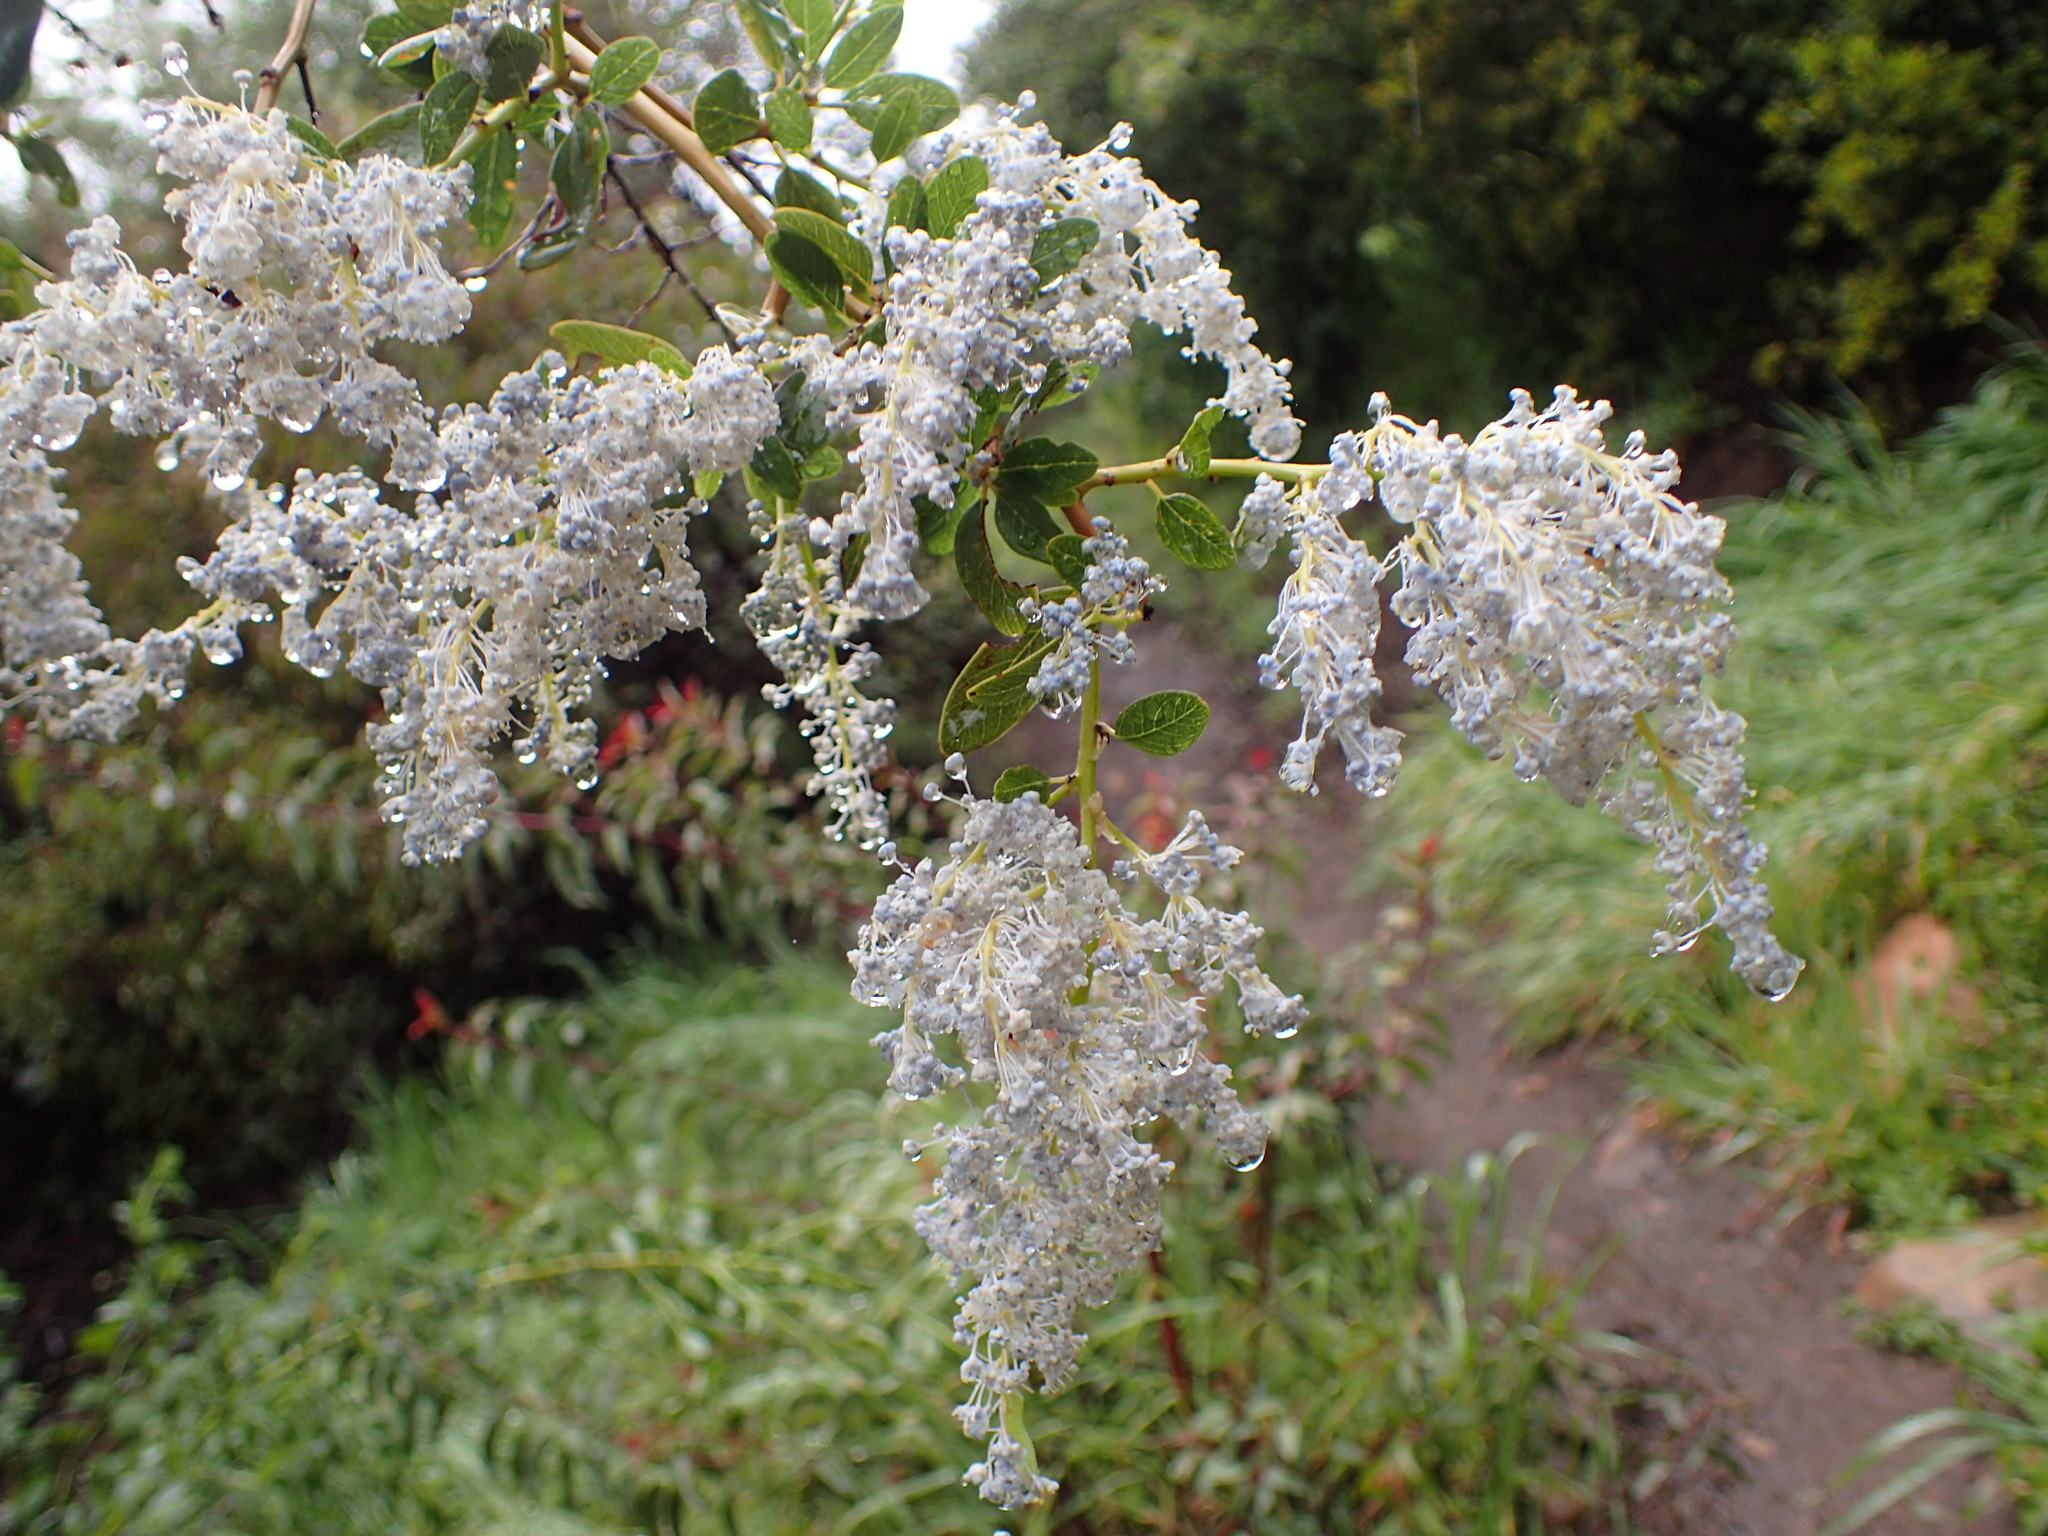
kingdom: Plantae
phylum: Tracheophyta
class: Magnoliopsida
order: Rosales
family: Rhamnaceae
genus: Ceanothus
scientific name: Ceanothus spinosus
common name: Greenbark whitethorn
